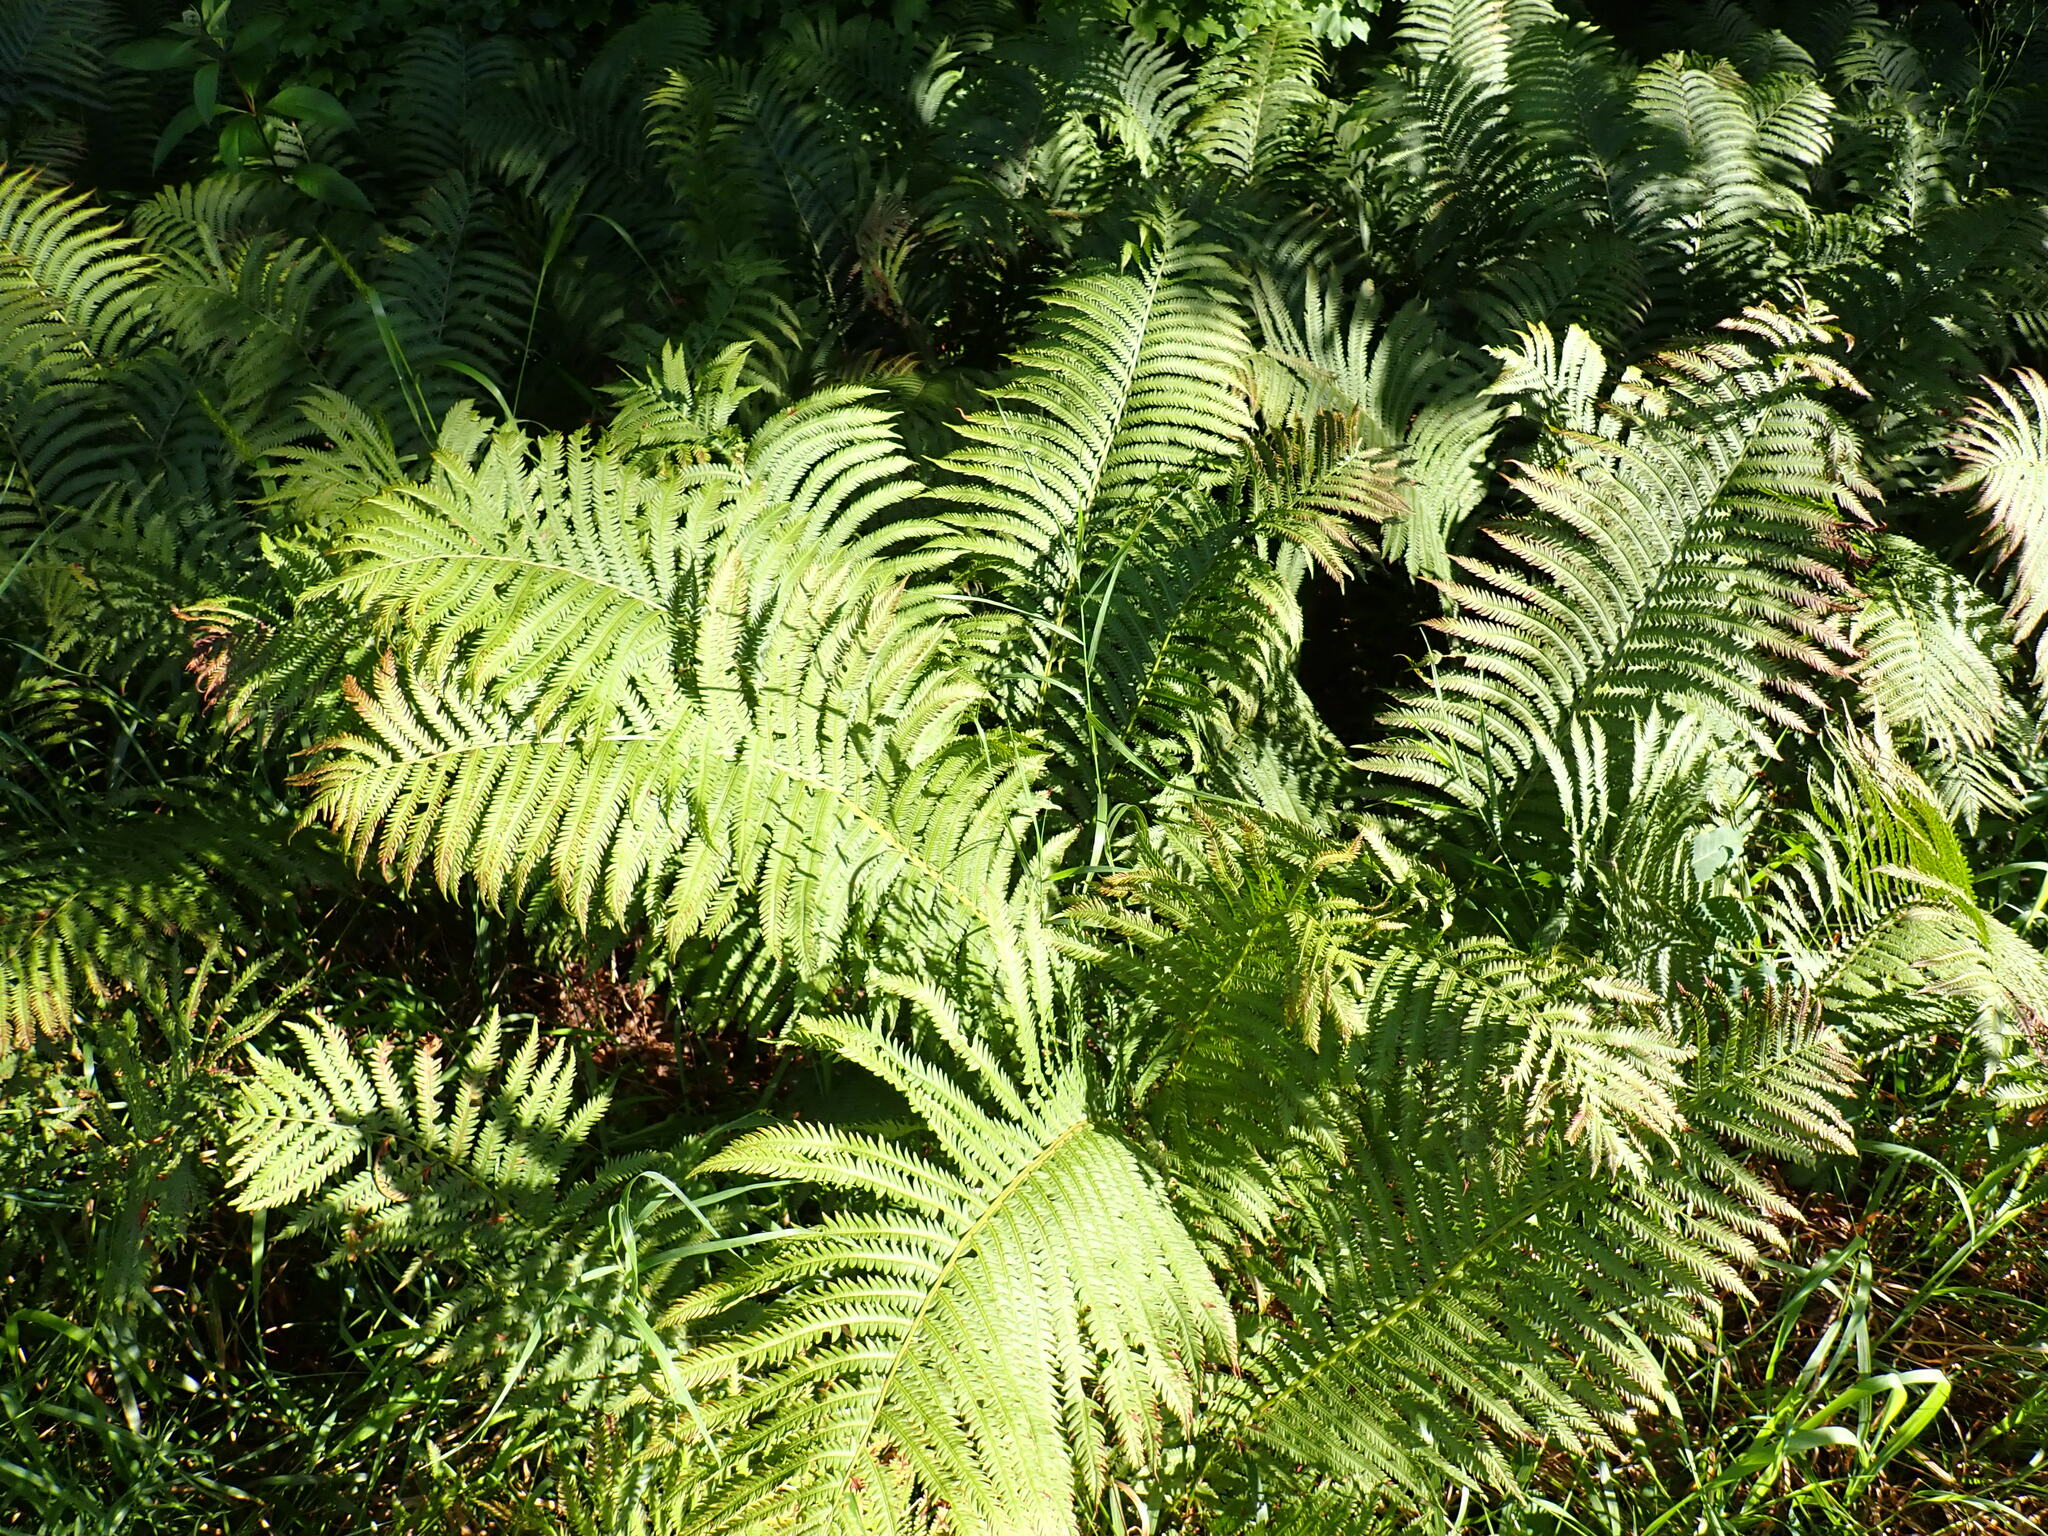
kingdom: Plantae
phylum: Tracheophyta
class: Polypodiopsida
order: Polypodiales
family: Onocleaceae
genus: Matteuccia
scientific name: Matteuccia struthiopteris
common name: Ostrich fern
